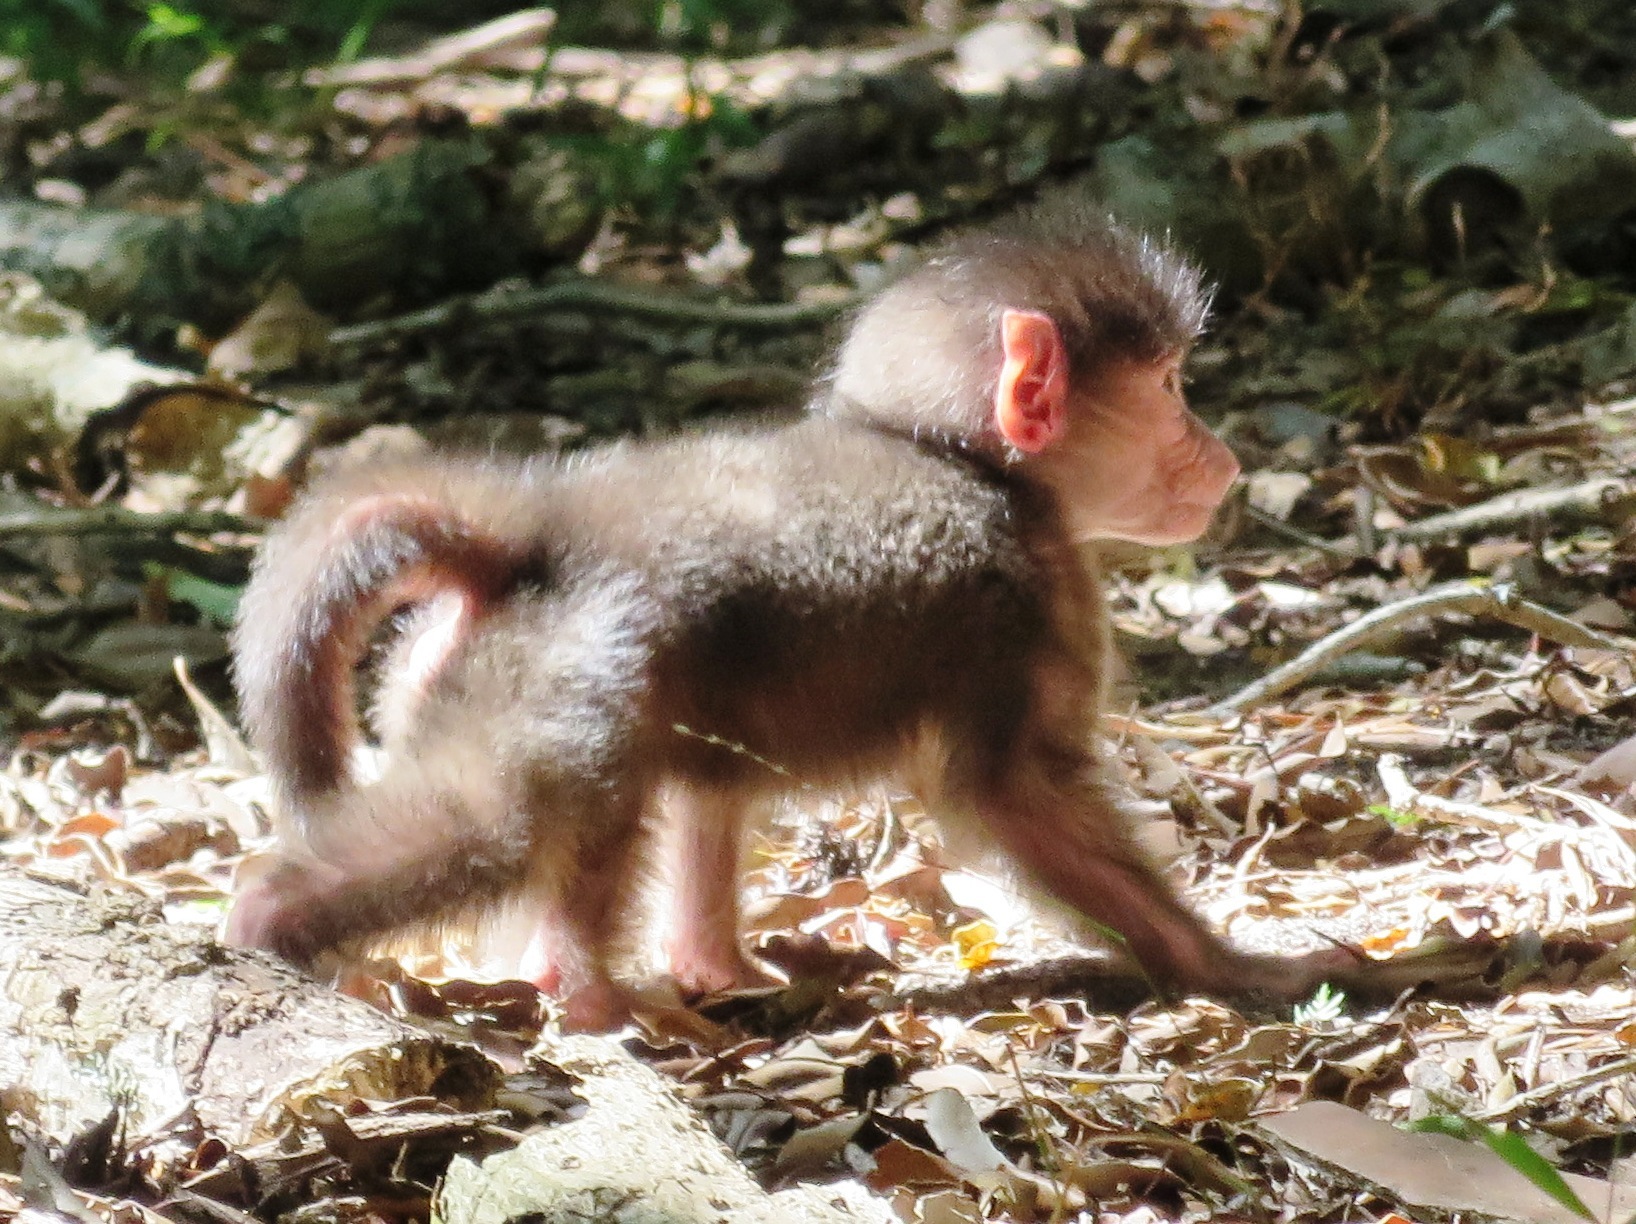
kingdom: Animalia
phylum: Chordata
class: Mammalia
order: Primates
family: Cercopithecidae
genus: Papio
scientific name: Papio ursinus
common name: Chacma baboon
